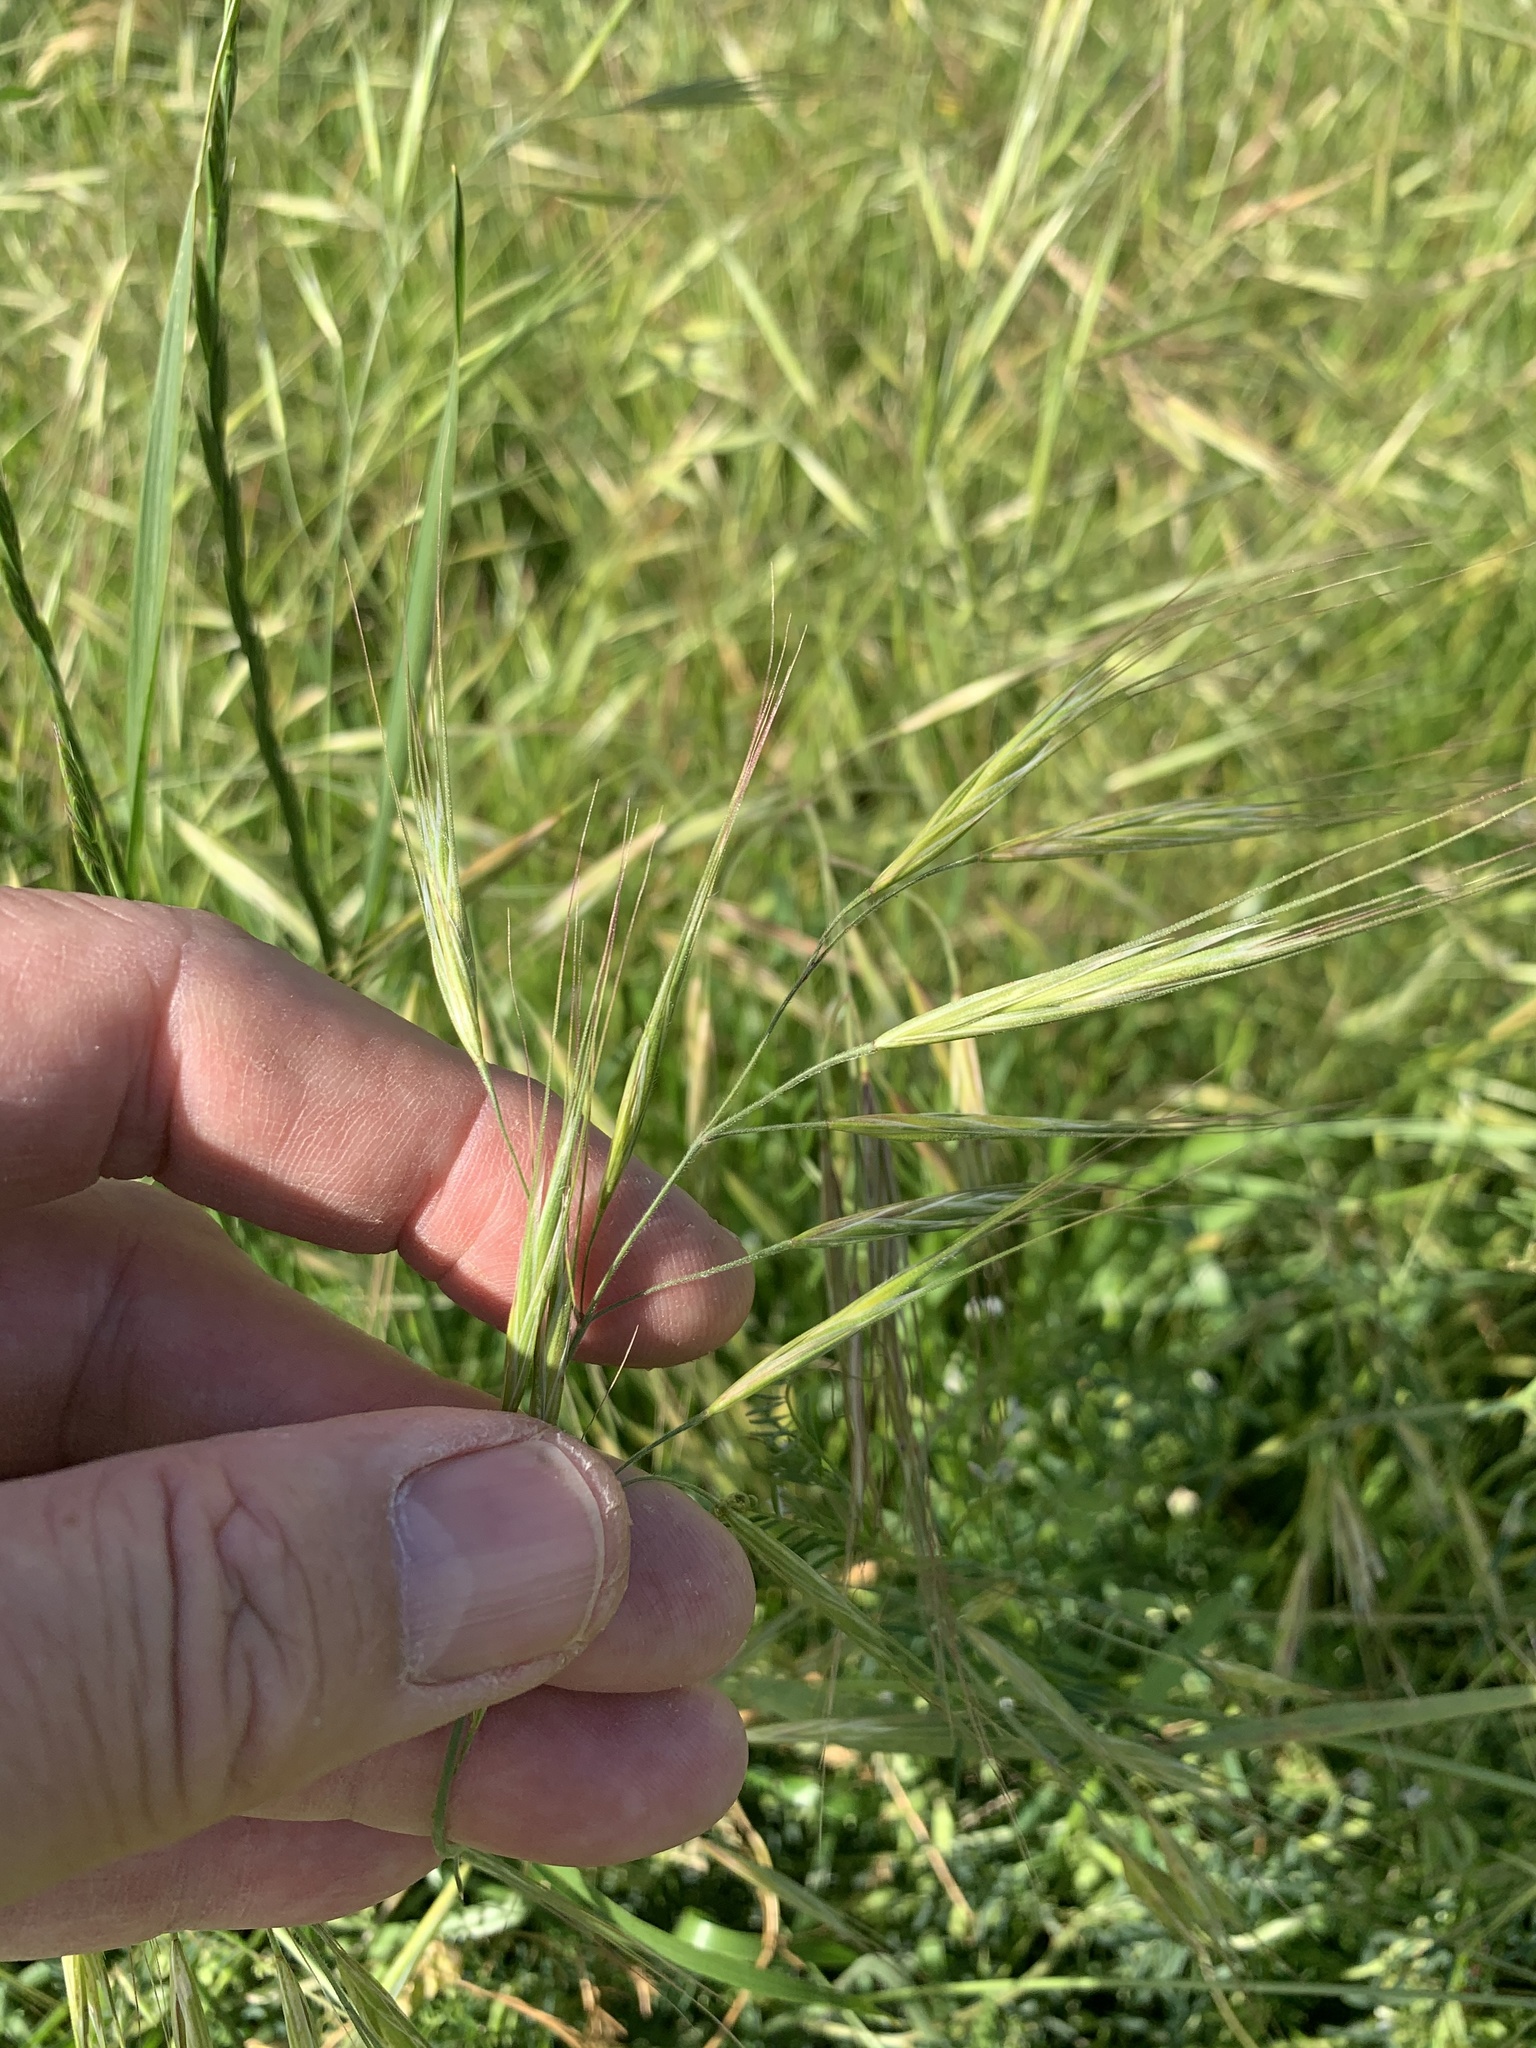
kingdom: Plantae
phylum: Tracheophyta
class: Liliopsida
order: Poales
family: Poaceae
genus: Bromus
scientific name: Bromus diandrus
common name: Ripgut brome
